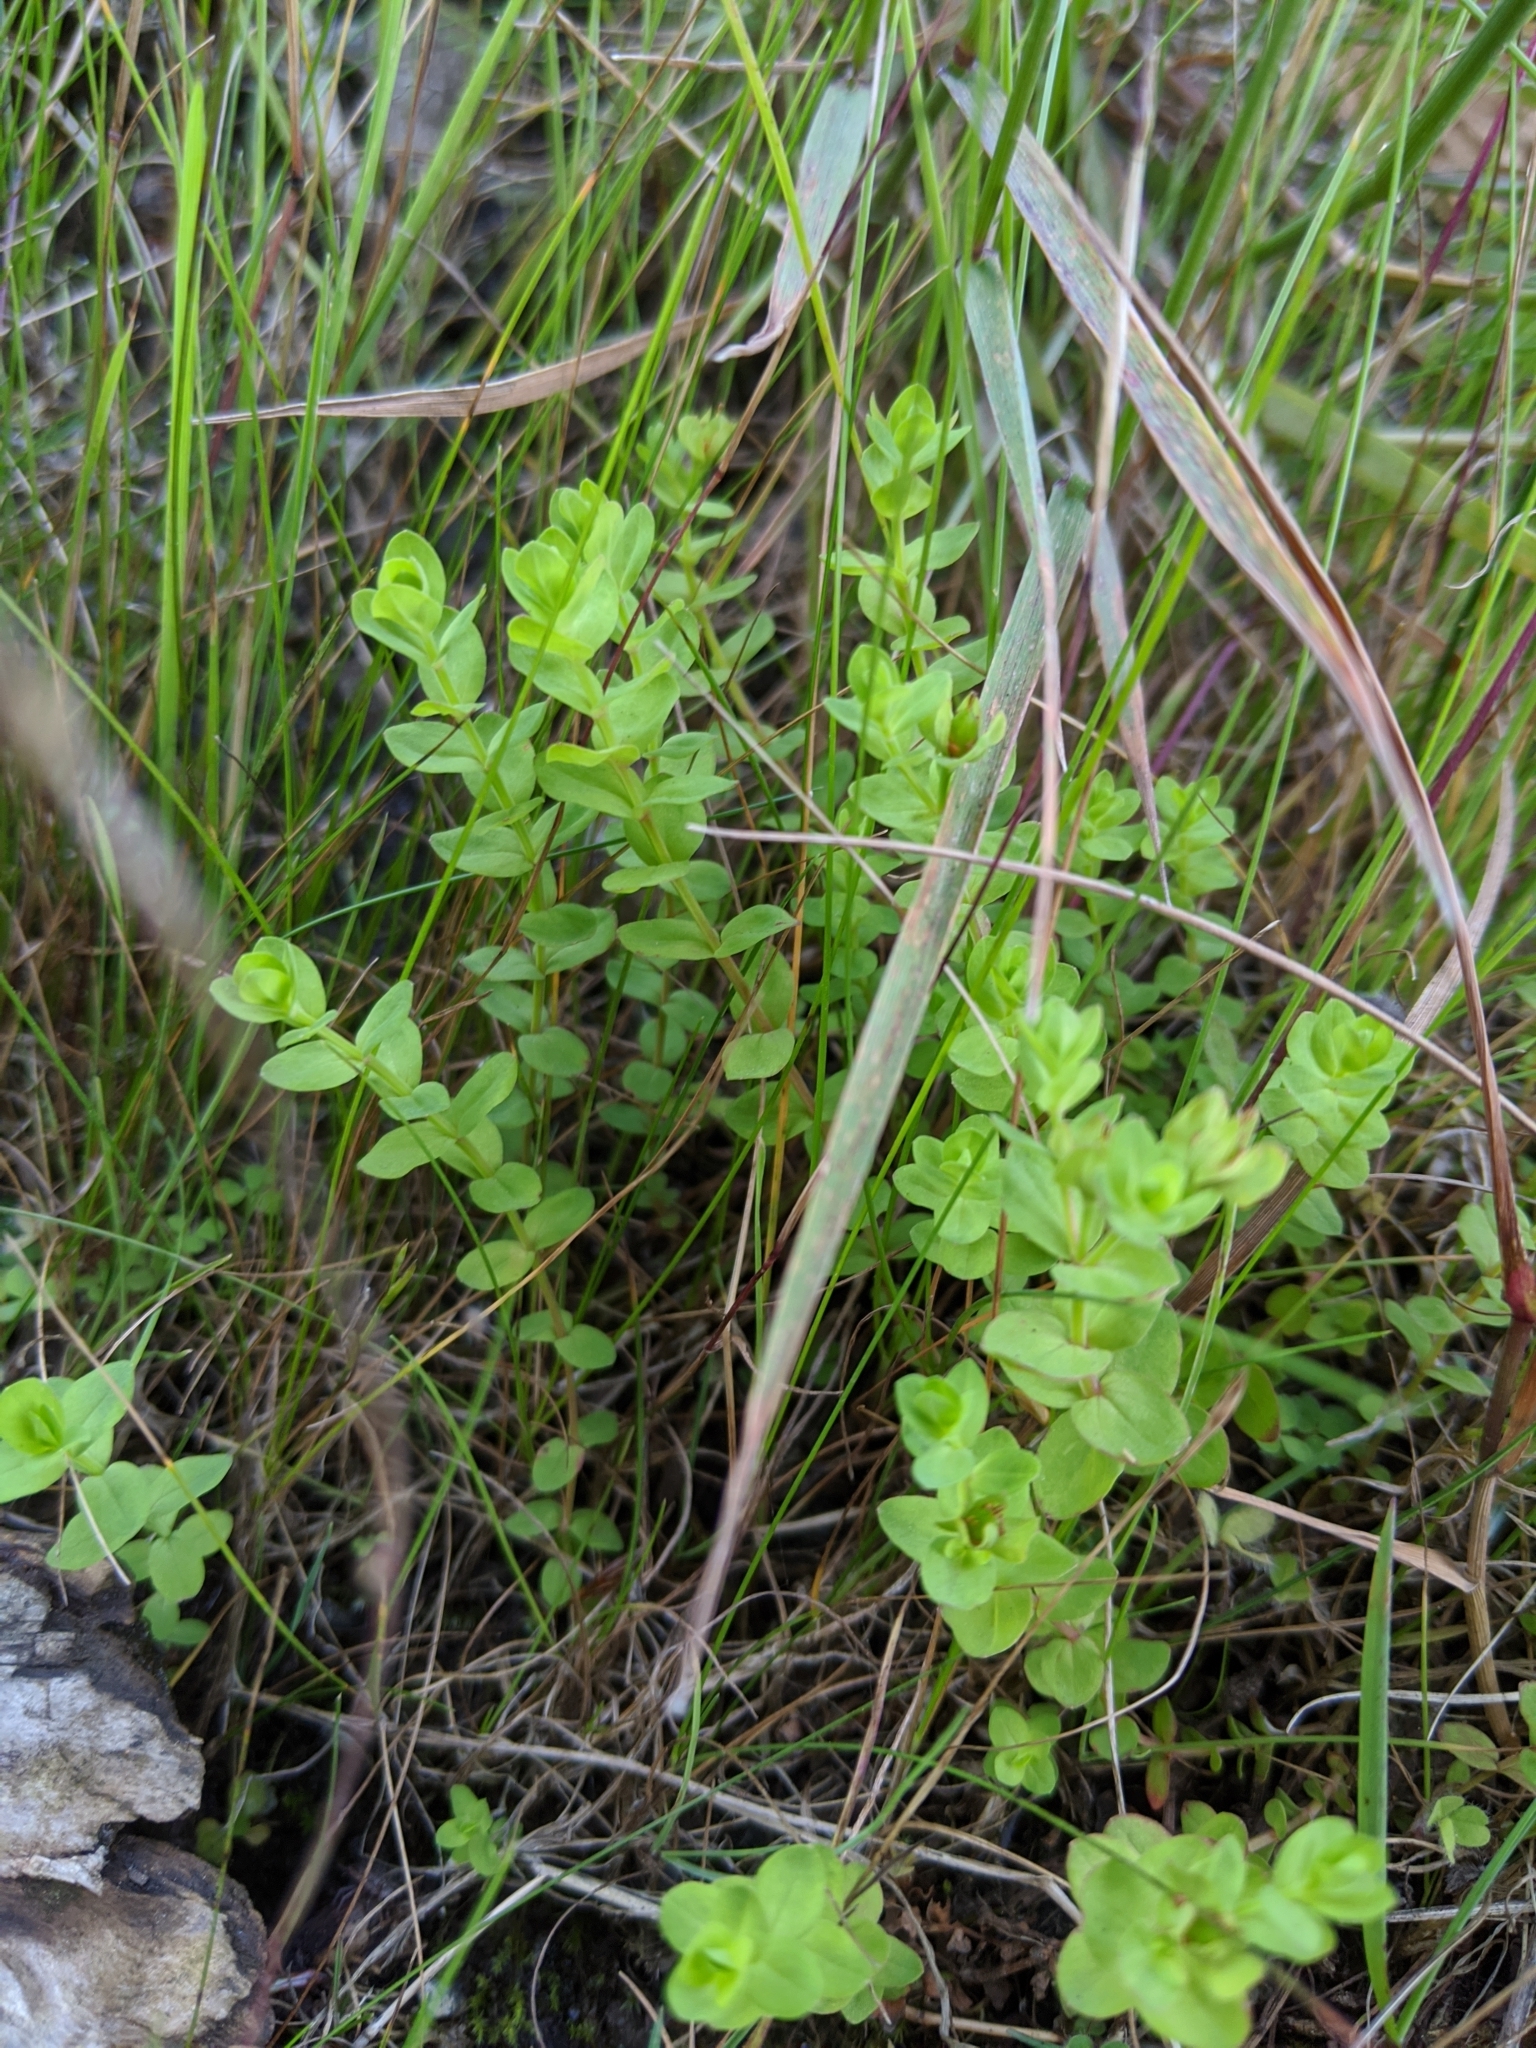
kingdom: Plantae
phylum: Tracheophyta
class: Magnoliopsida
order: Malpighiales
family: Hypericaceae
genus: Hypericum
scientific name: Hypericum anagalloides
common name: Bog st. john's-wort
